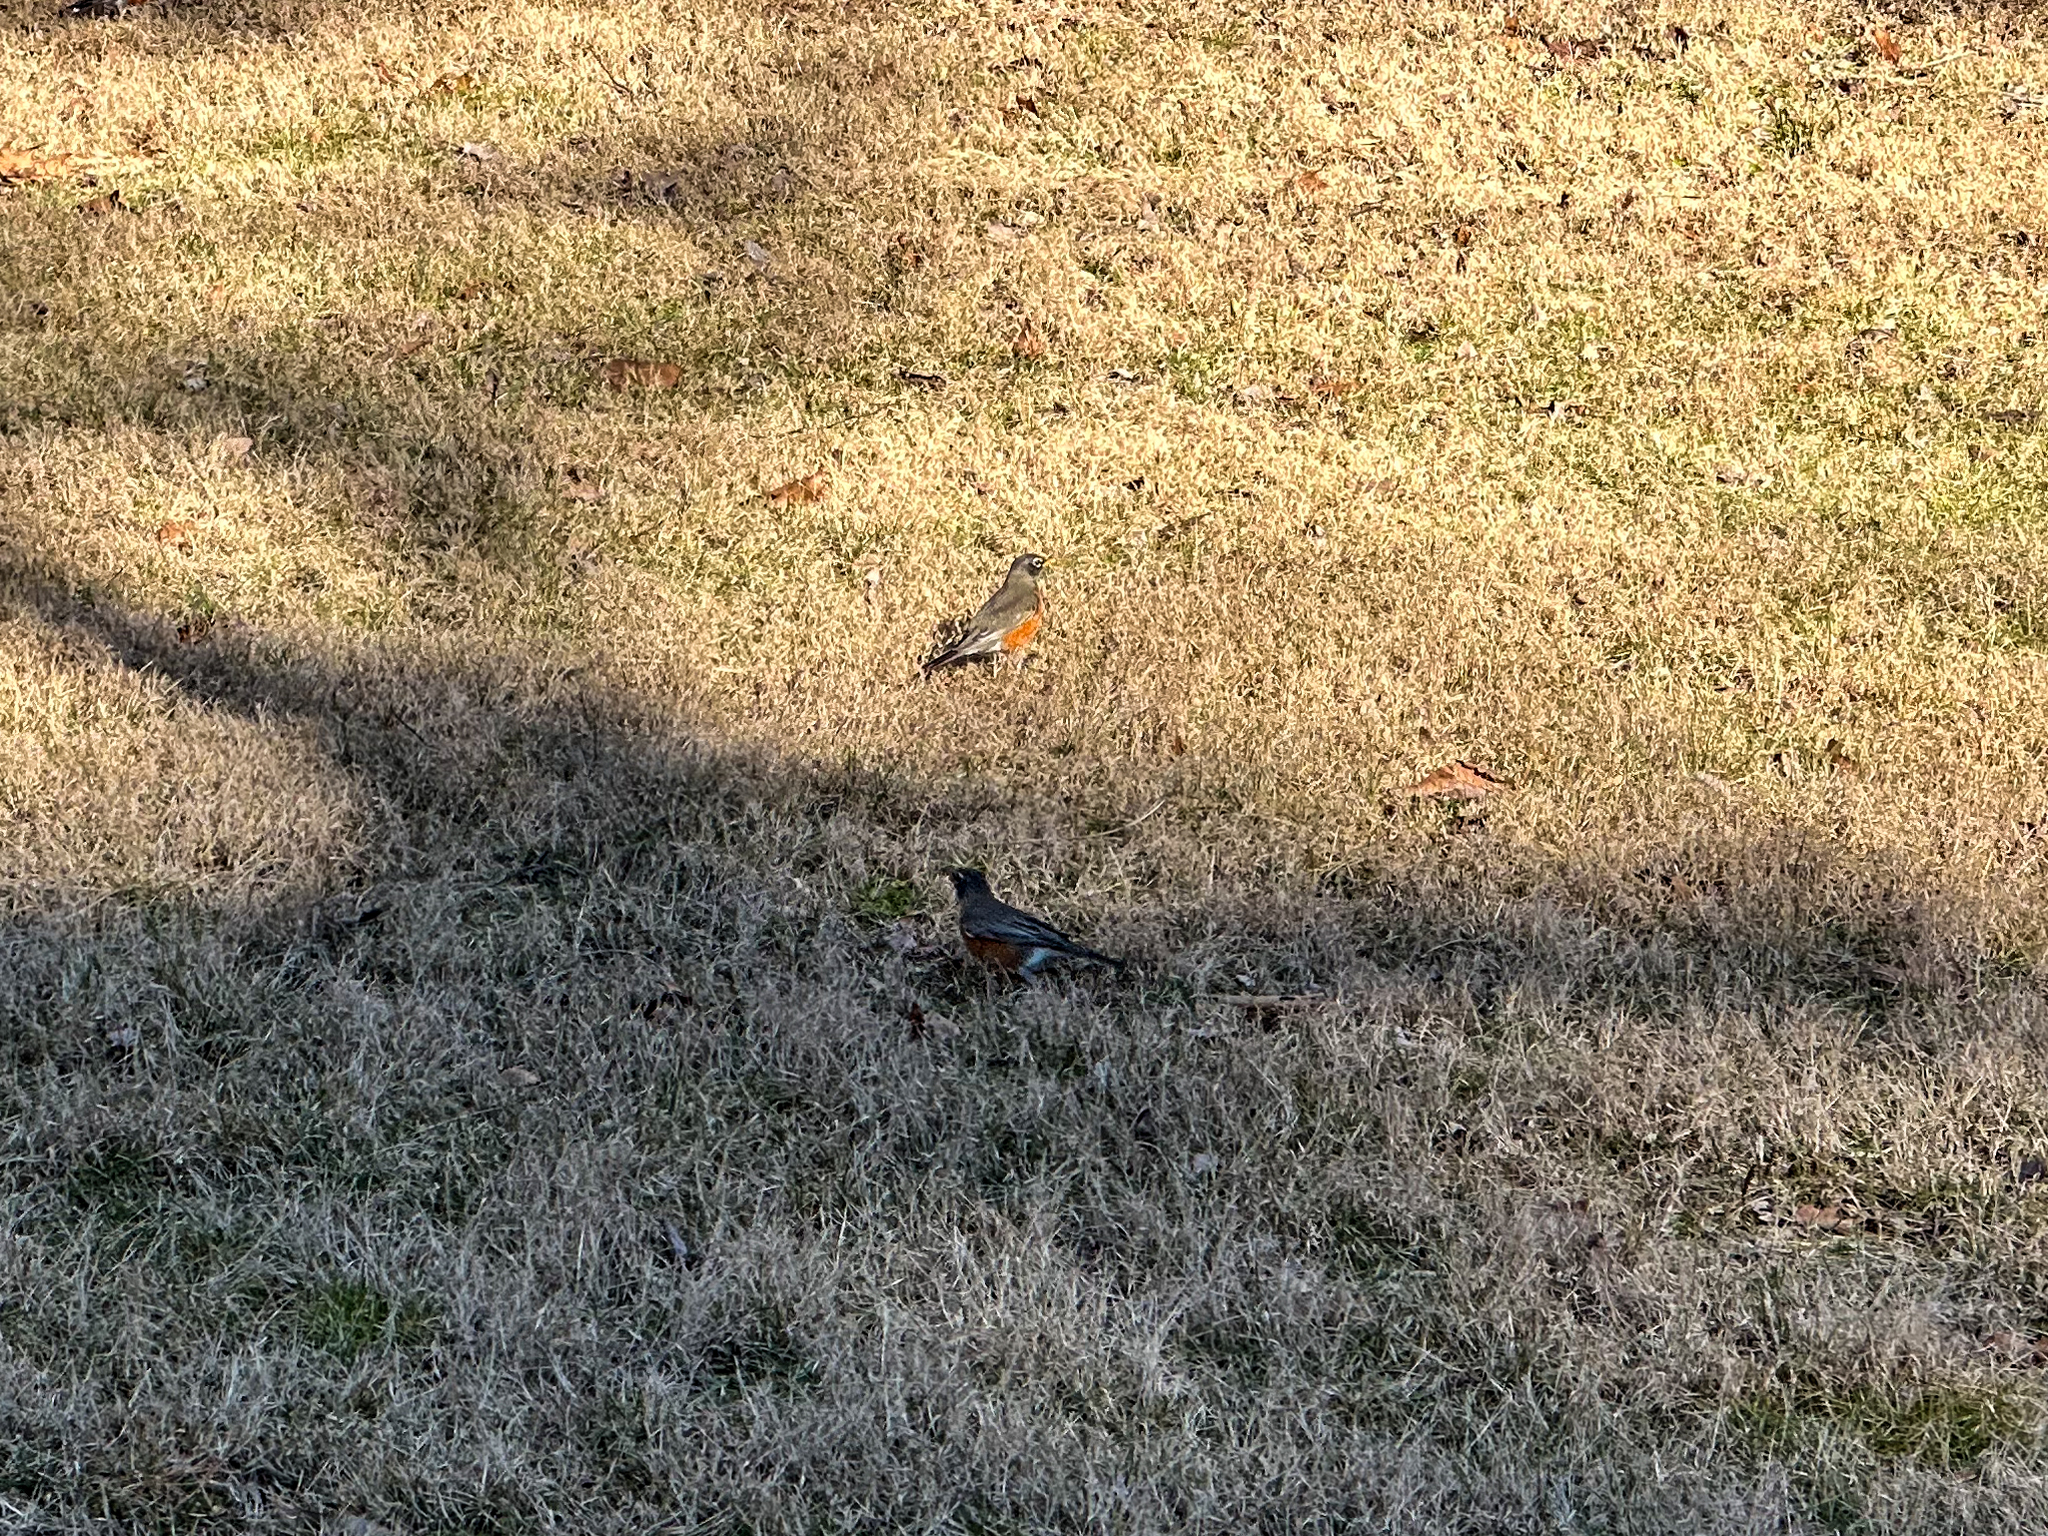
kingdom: Animalia
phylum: Chordata
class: Aves
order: Passeriformes
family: Turdidae
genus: Turdus
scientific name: Turdus migratorius
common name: American robin
